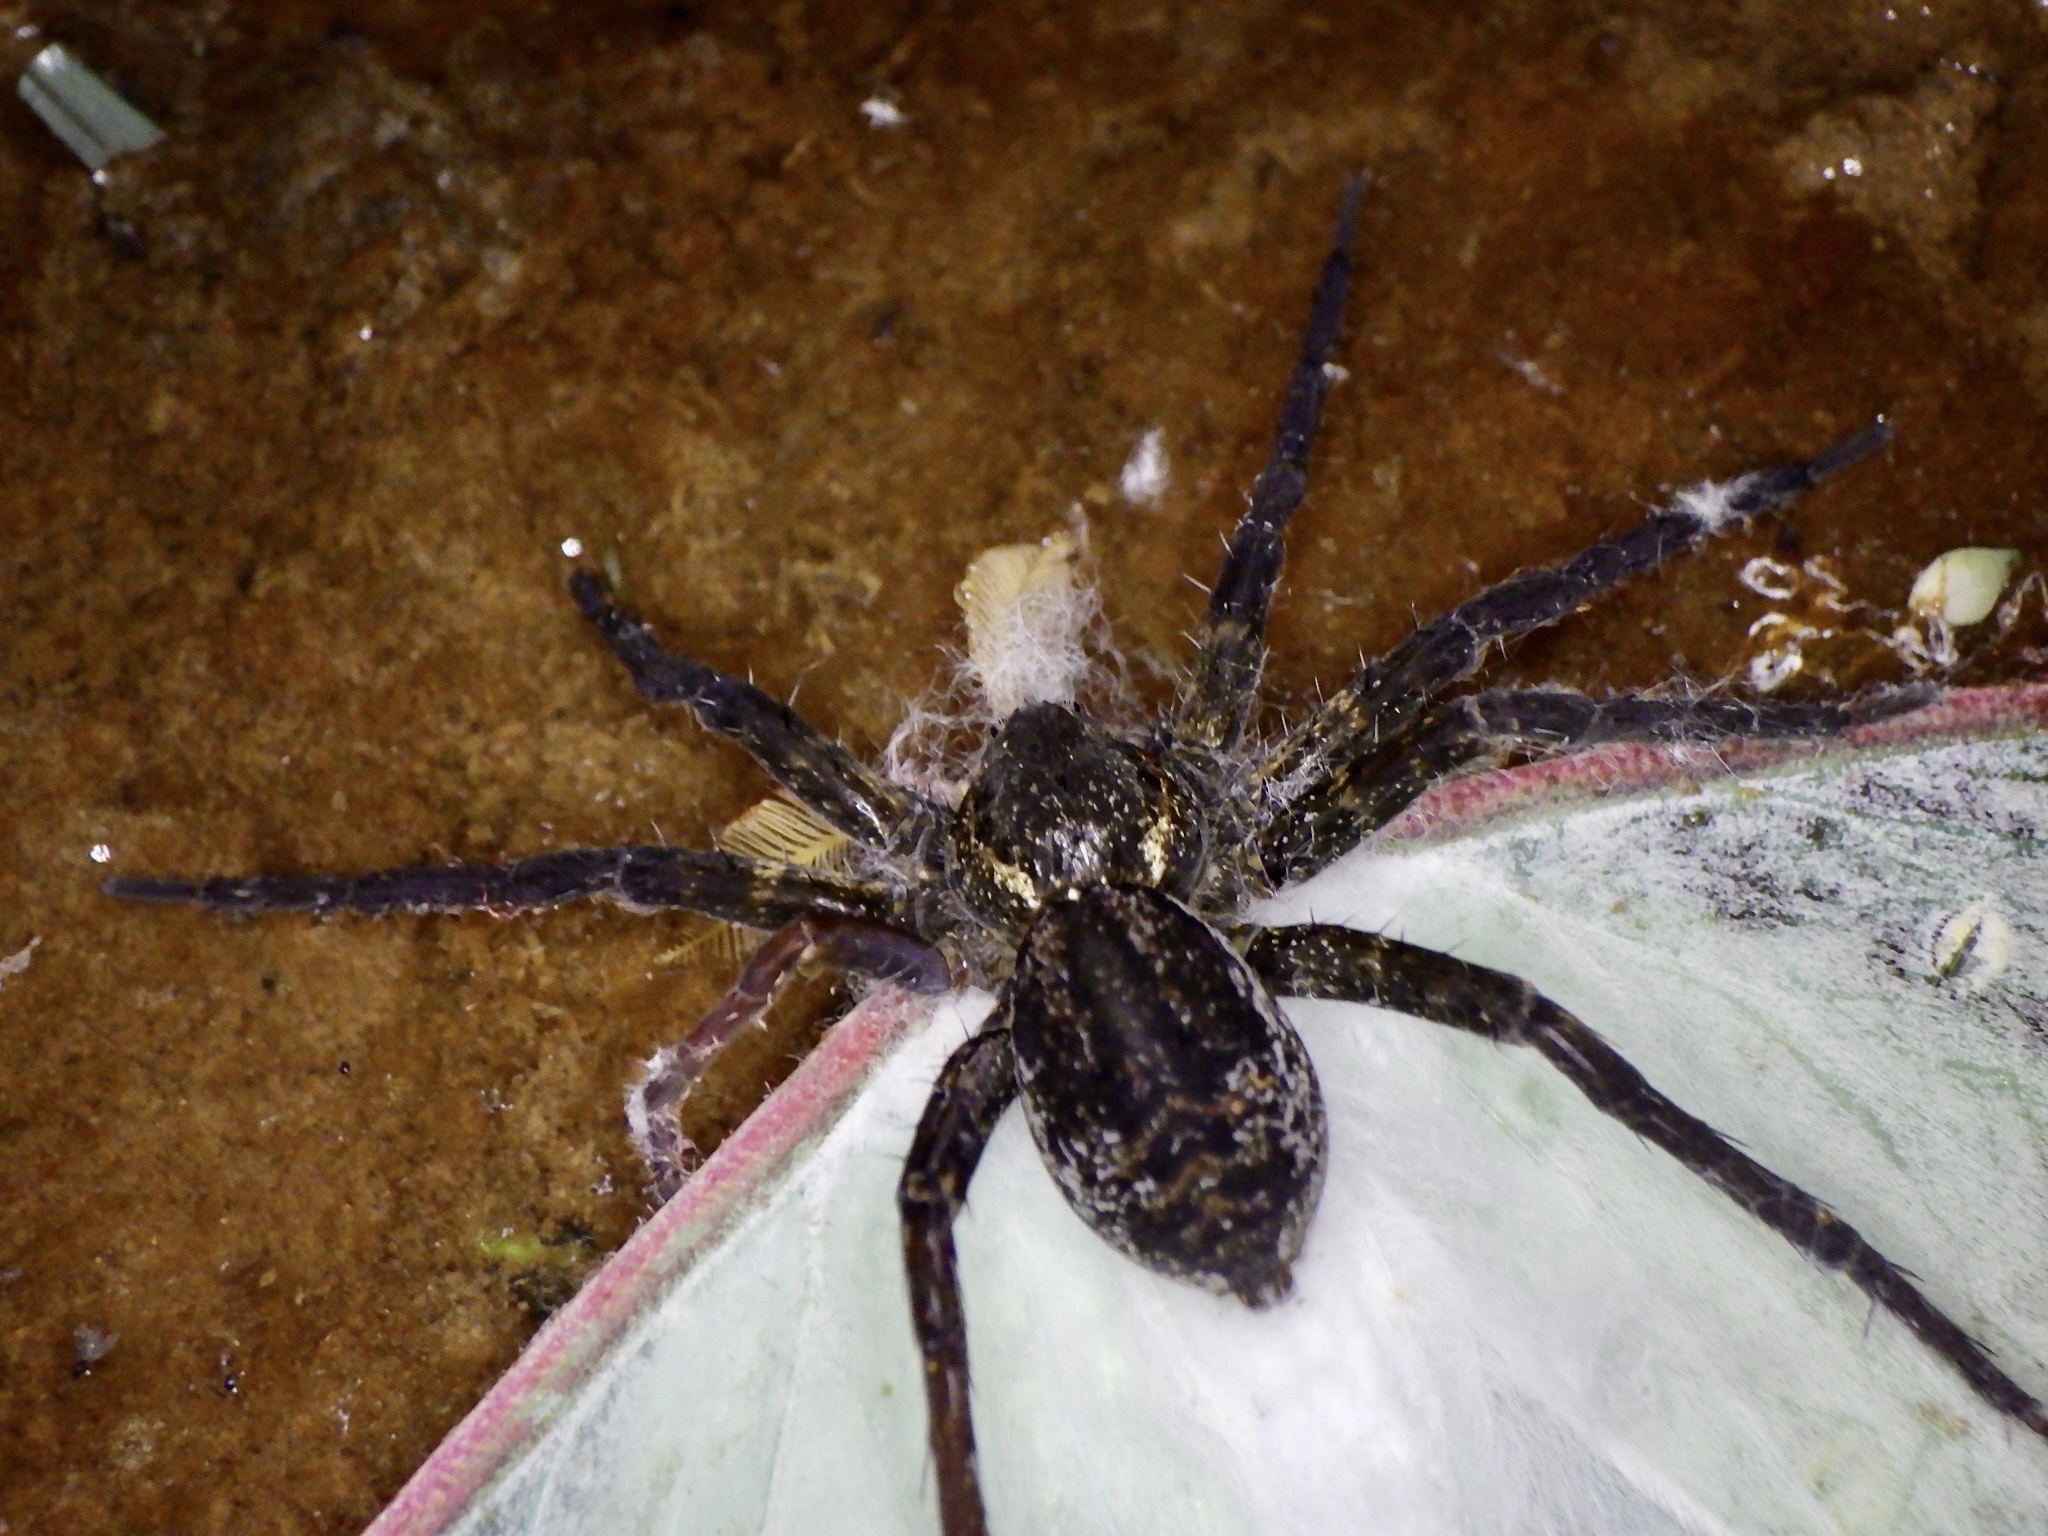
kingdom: Animalia
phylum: Arthropoda
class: Arachnida
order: Araneae
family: Pisauridae
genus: Dolomedes
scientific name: Dolomedes raptor
